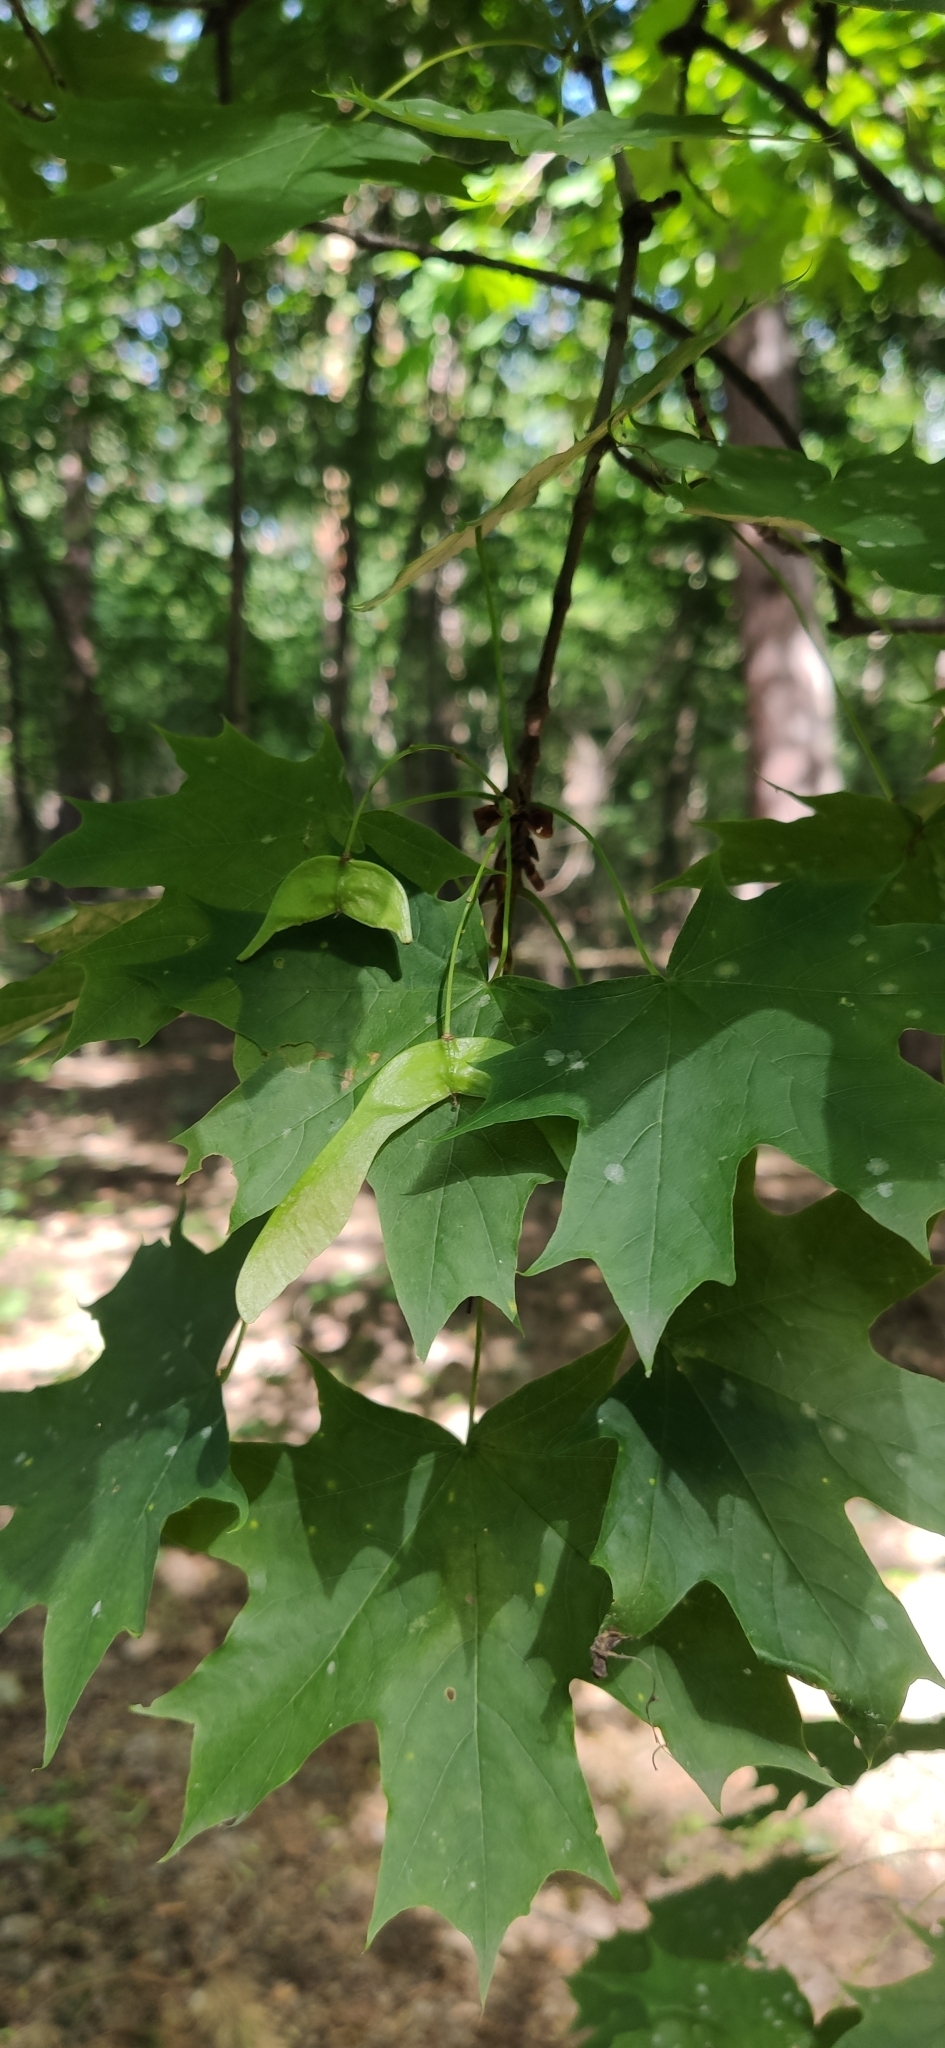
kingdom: Plantae
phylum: Tracheophyta
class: Magnoliopsida
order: Sapindales
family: Sapindaceae
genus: Acer
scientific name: Acer platanoides
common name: Norway maple
